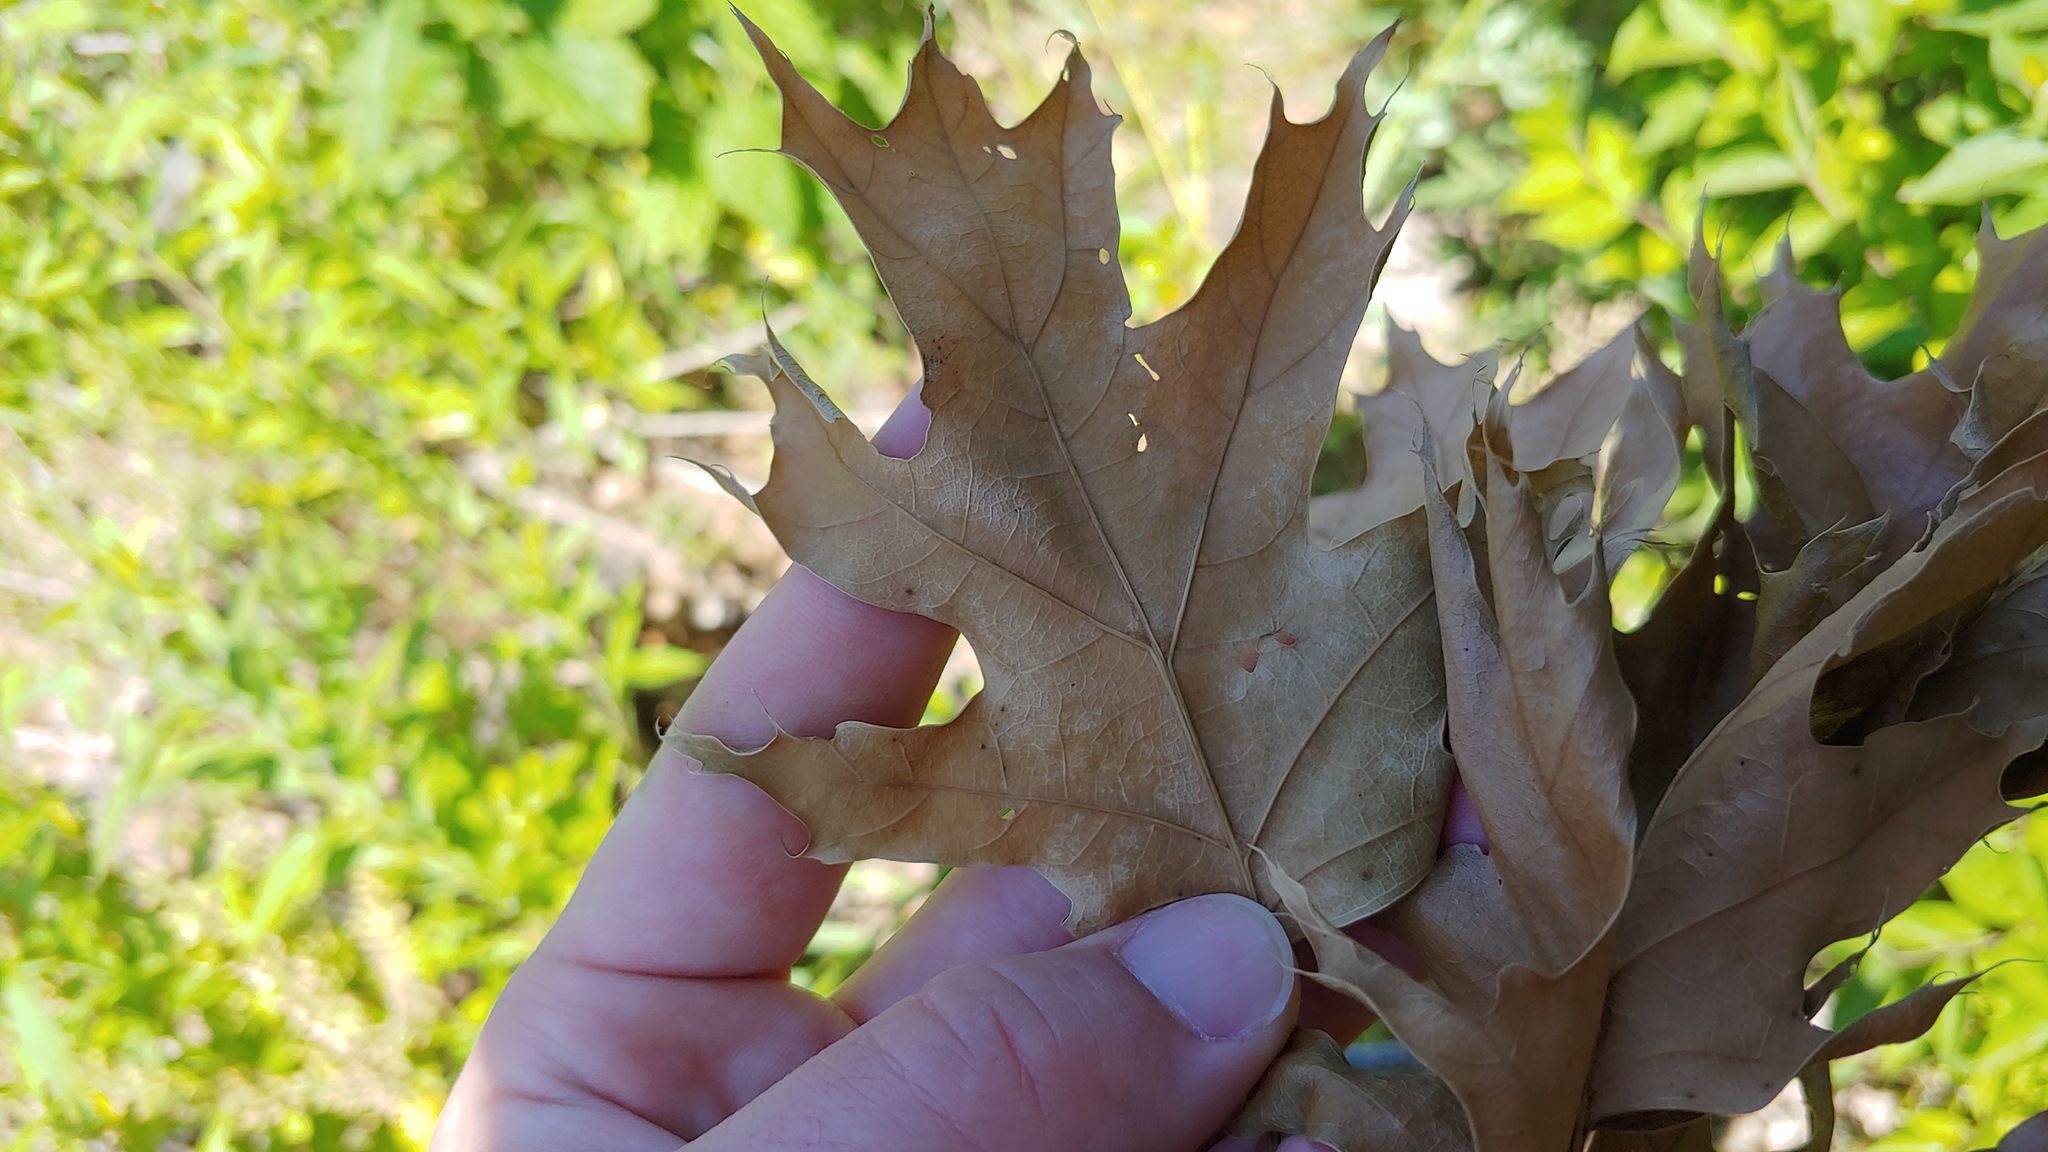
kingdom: Plantae
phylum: Tracheophyta
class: Magnoliopsida
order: Fagales
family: Fagaceae
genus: Quercus
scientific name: Quercus rubra
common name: Red oak
